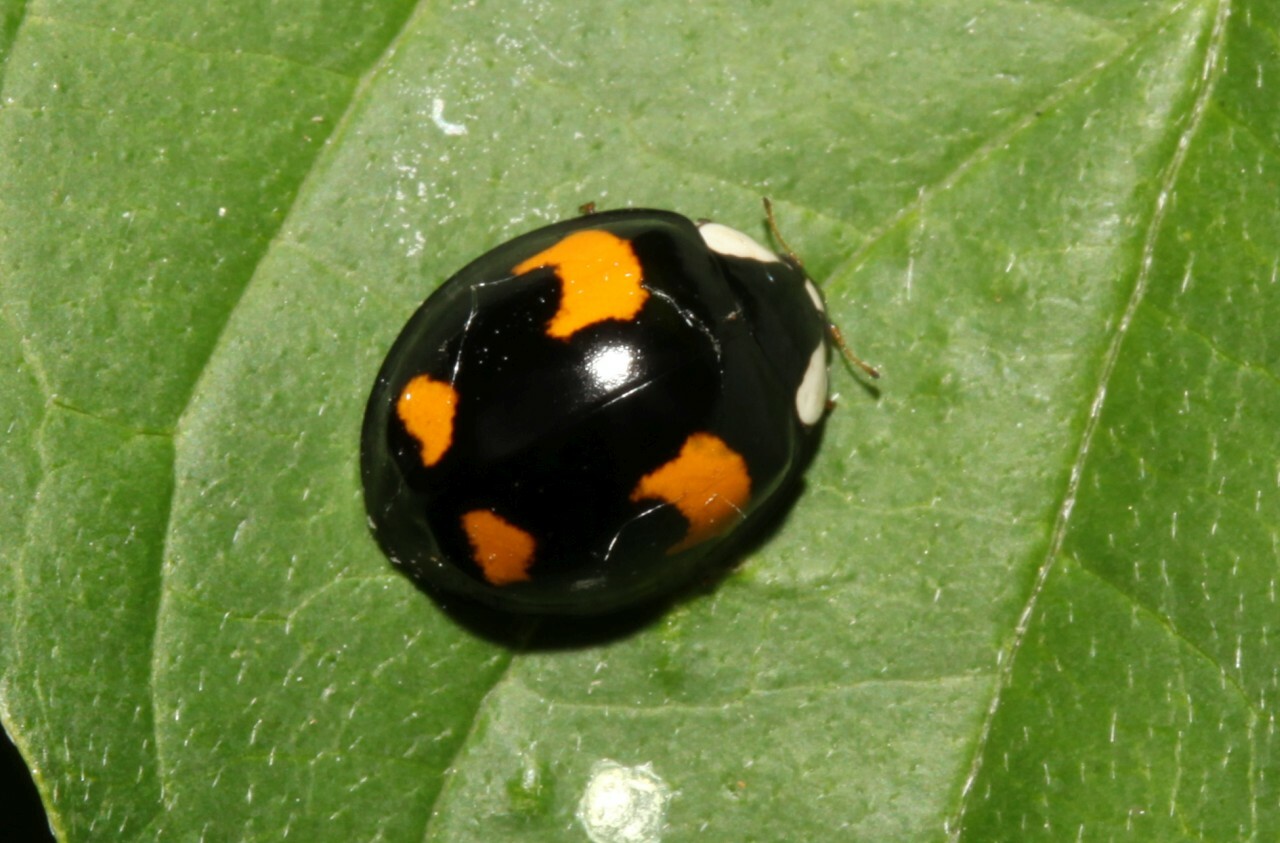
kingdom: Animalia
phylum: Arthropoda
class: Insecta
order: Coleoptera
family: Coccinellidae
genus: Harmonia
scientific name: Harmonia axyridis
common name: Harlequin ladybird
